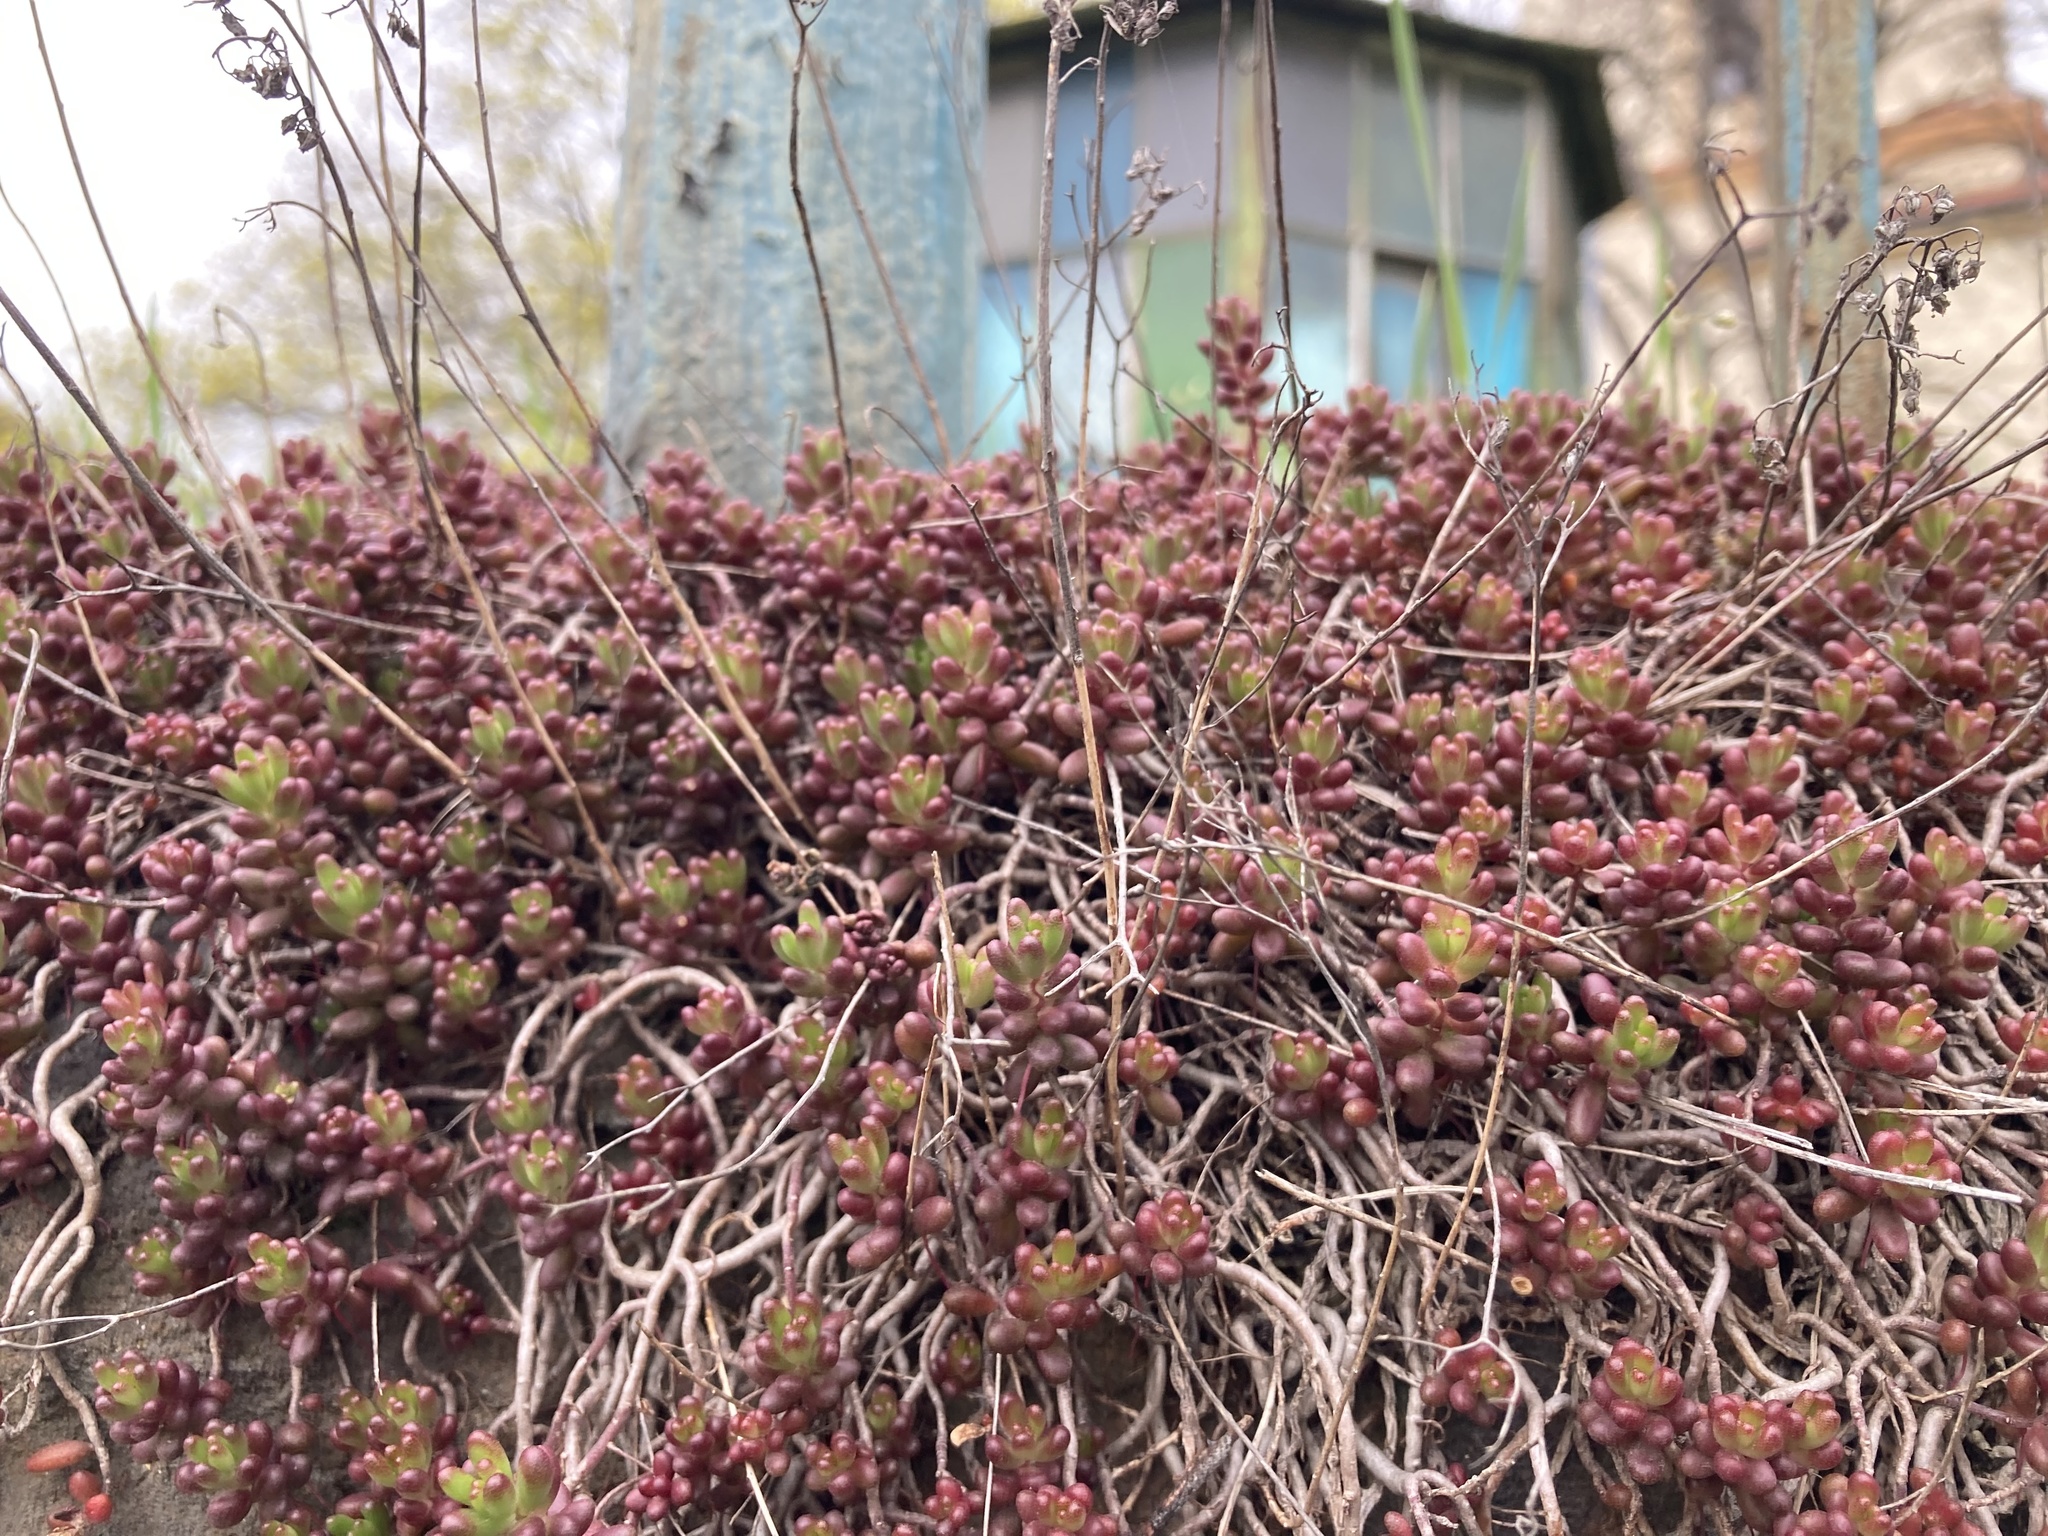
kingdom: Plantae
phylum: Tracheophyta
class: Magnoliopsida
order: Saxifragales
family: Crassulaceae
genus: Sedum
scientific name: Sedum album
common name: White stonecrop
